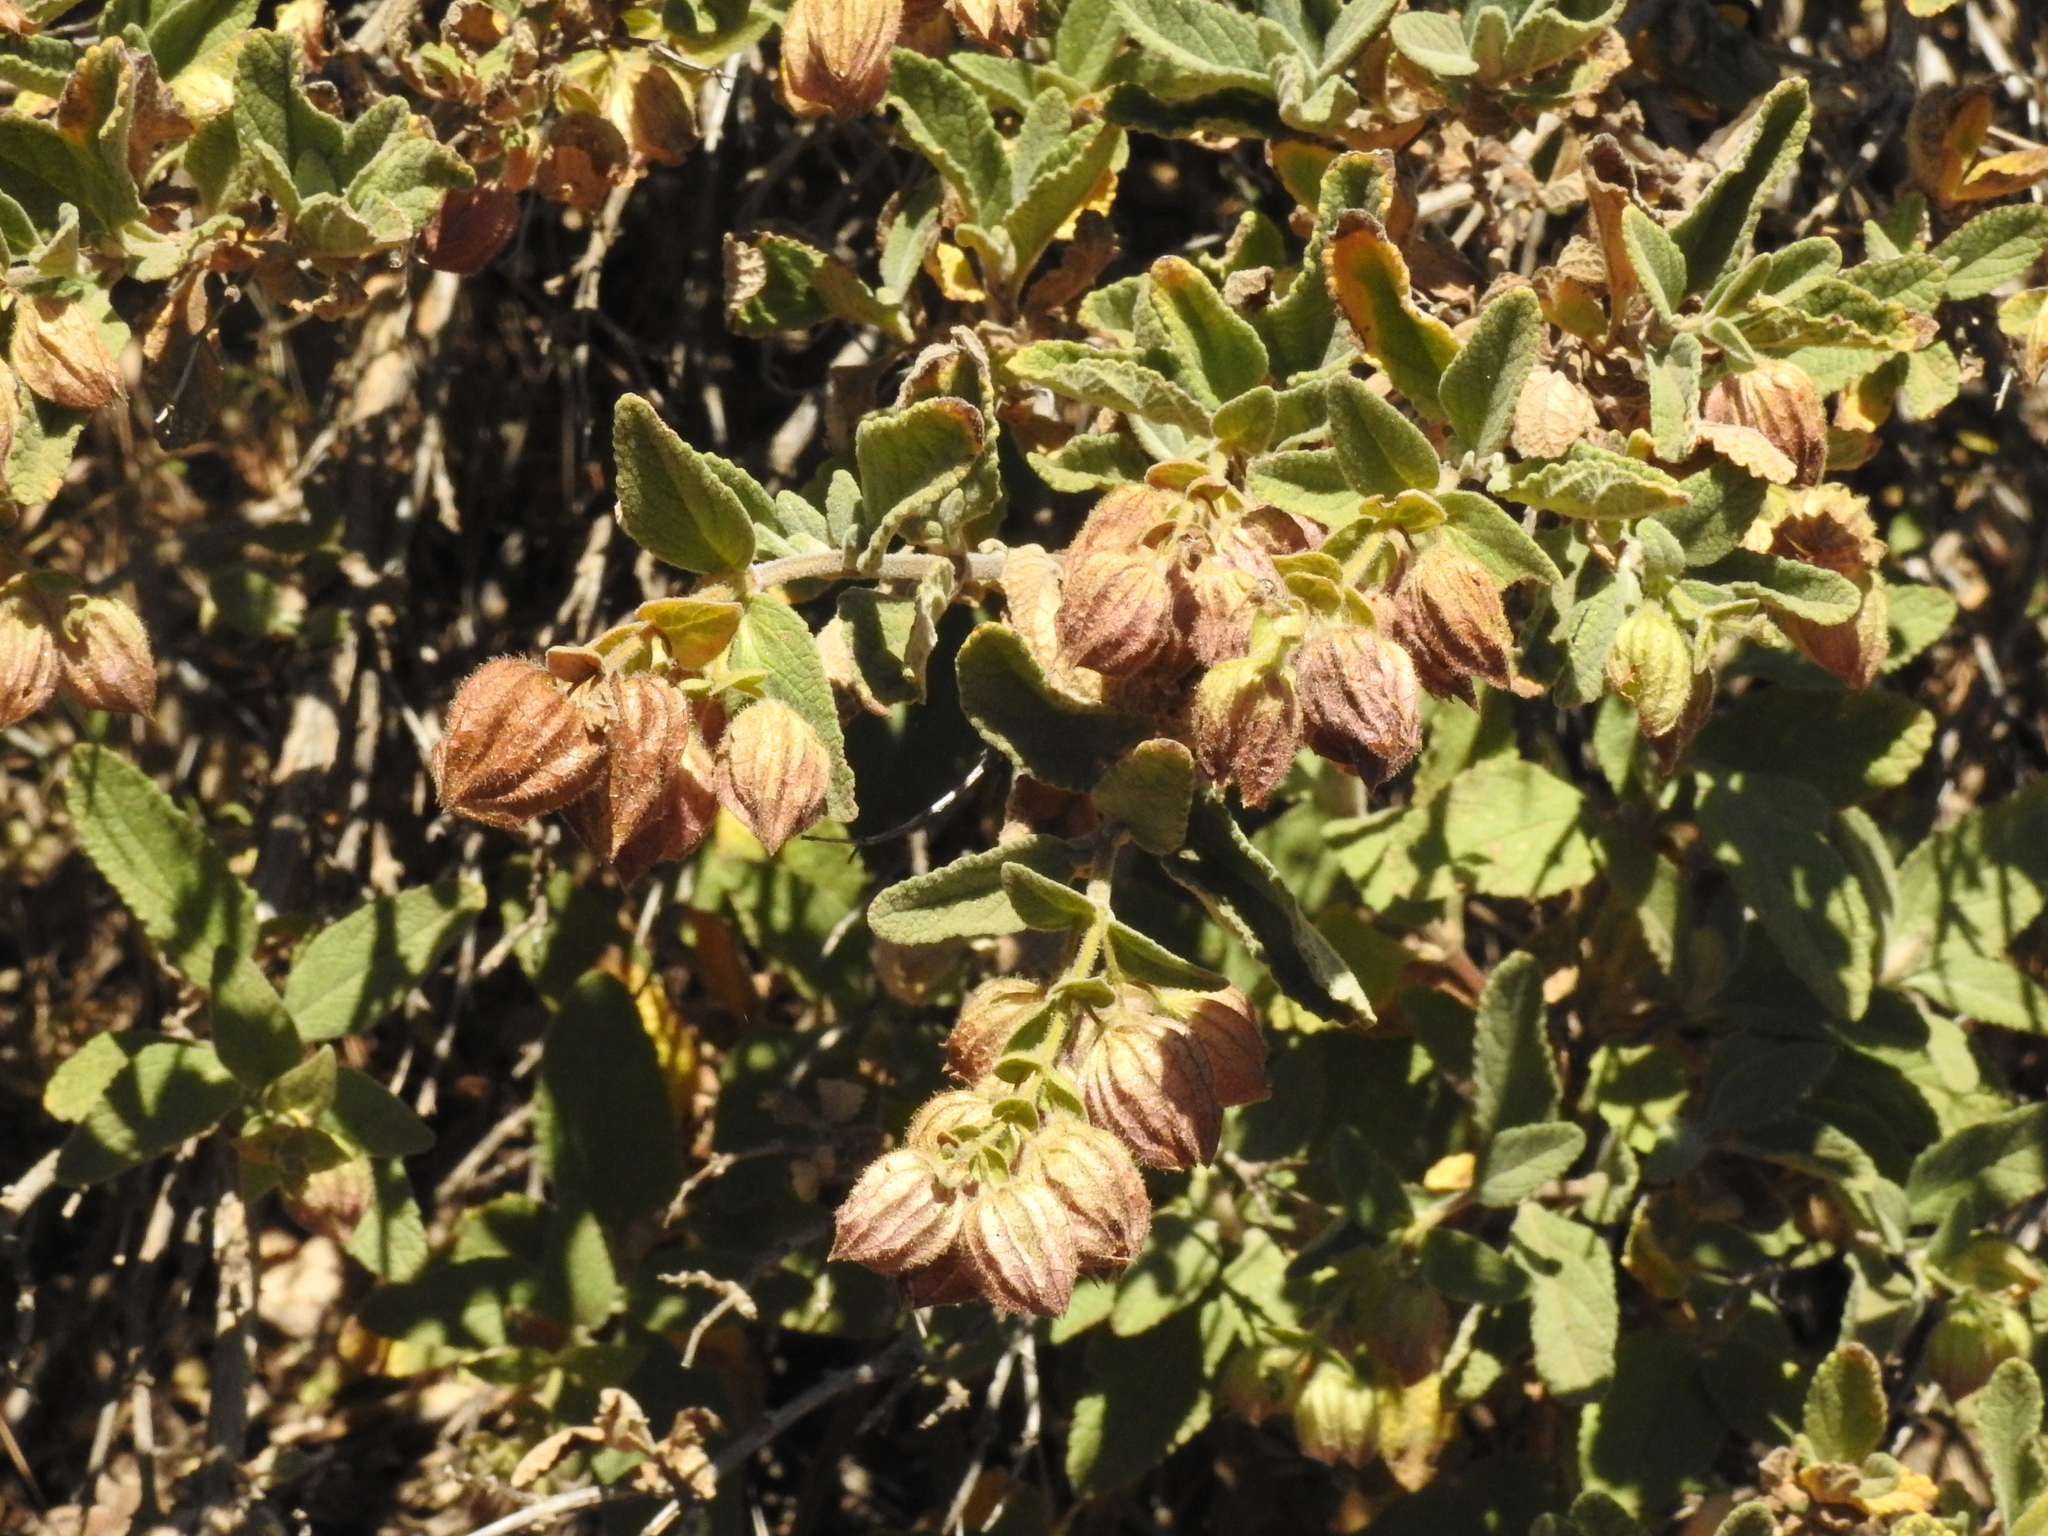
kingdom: Plantae
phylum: Tracheophyta
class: Magnoliopsida
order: Lamiales
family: Lamiaceae
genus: Lepechinia
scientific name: Lepechinia calycina
